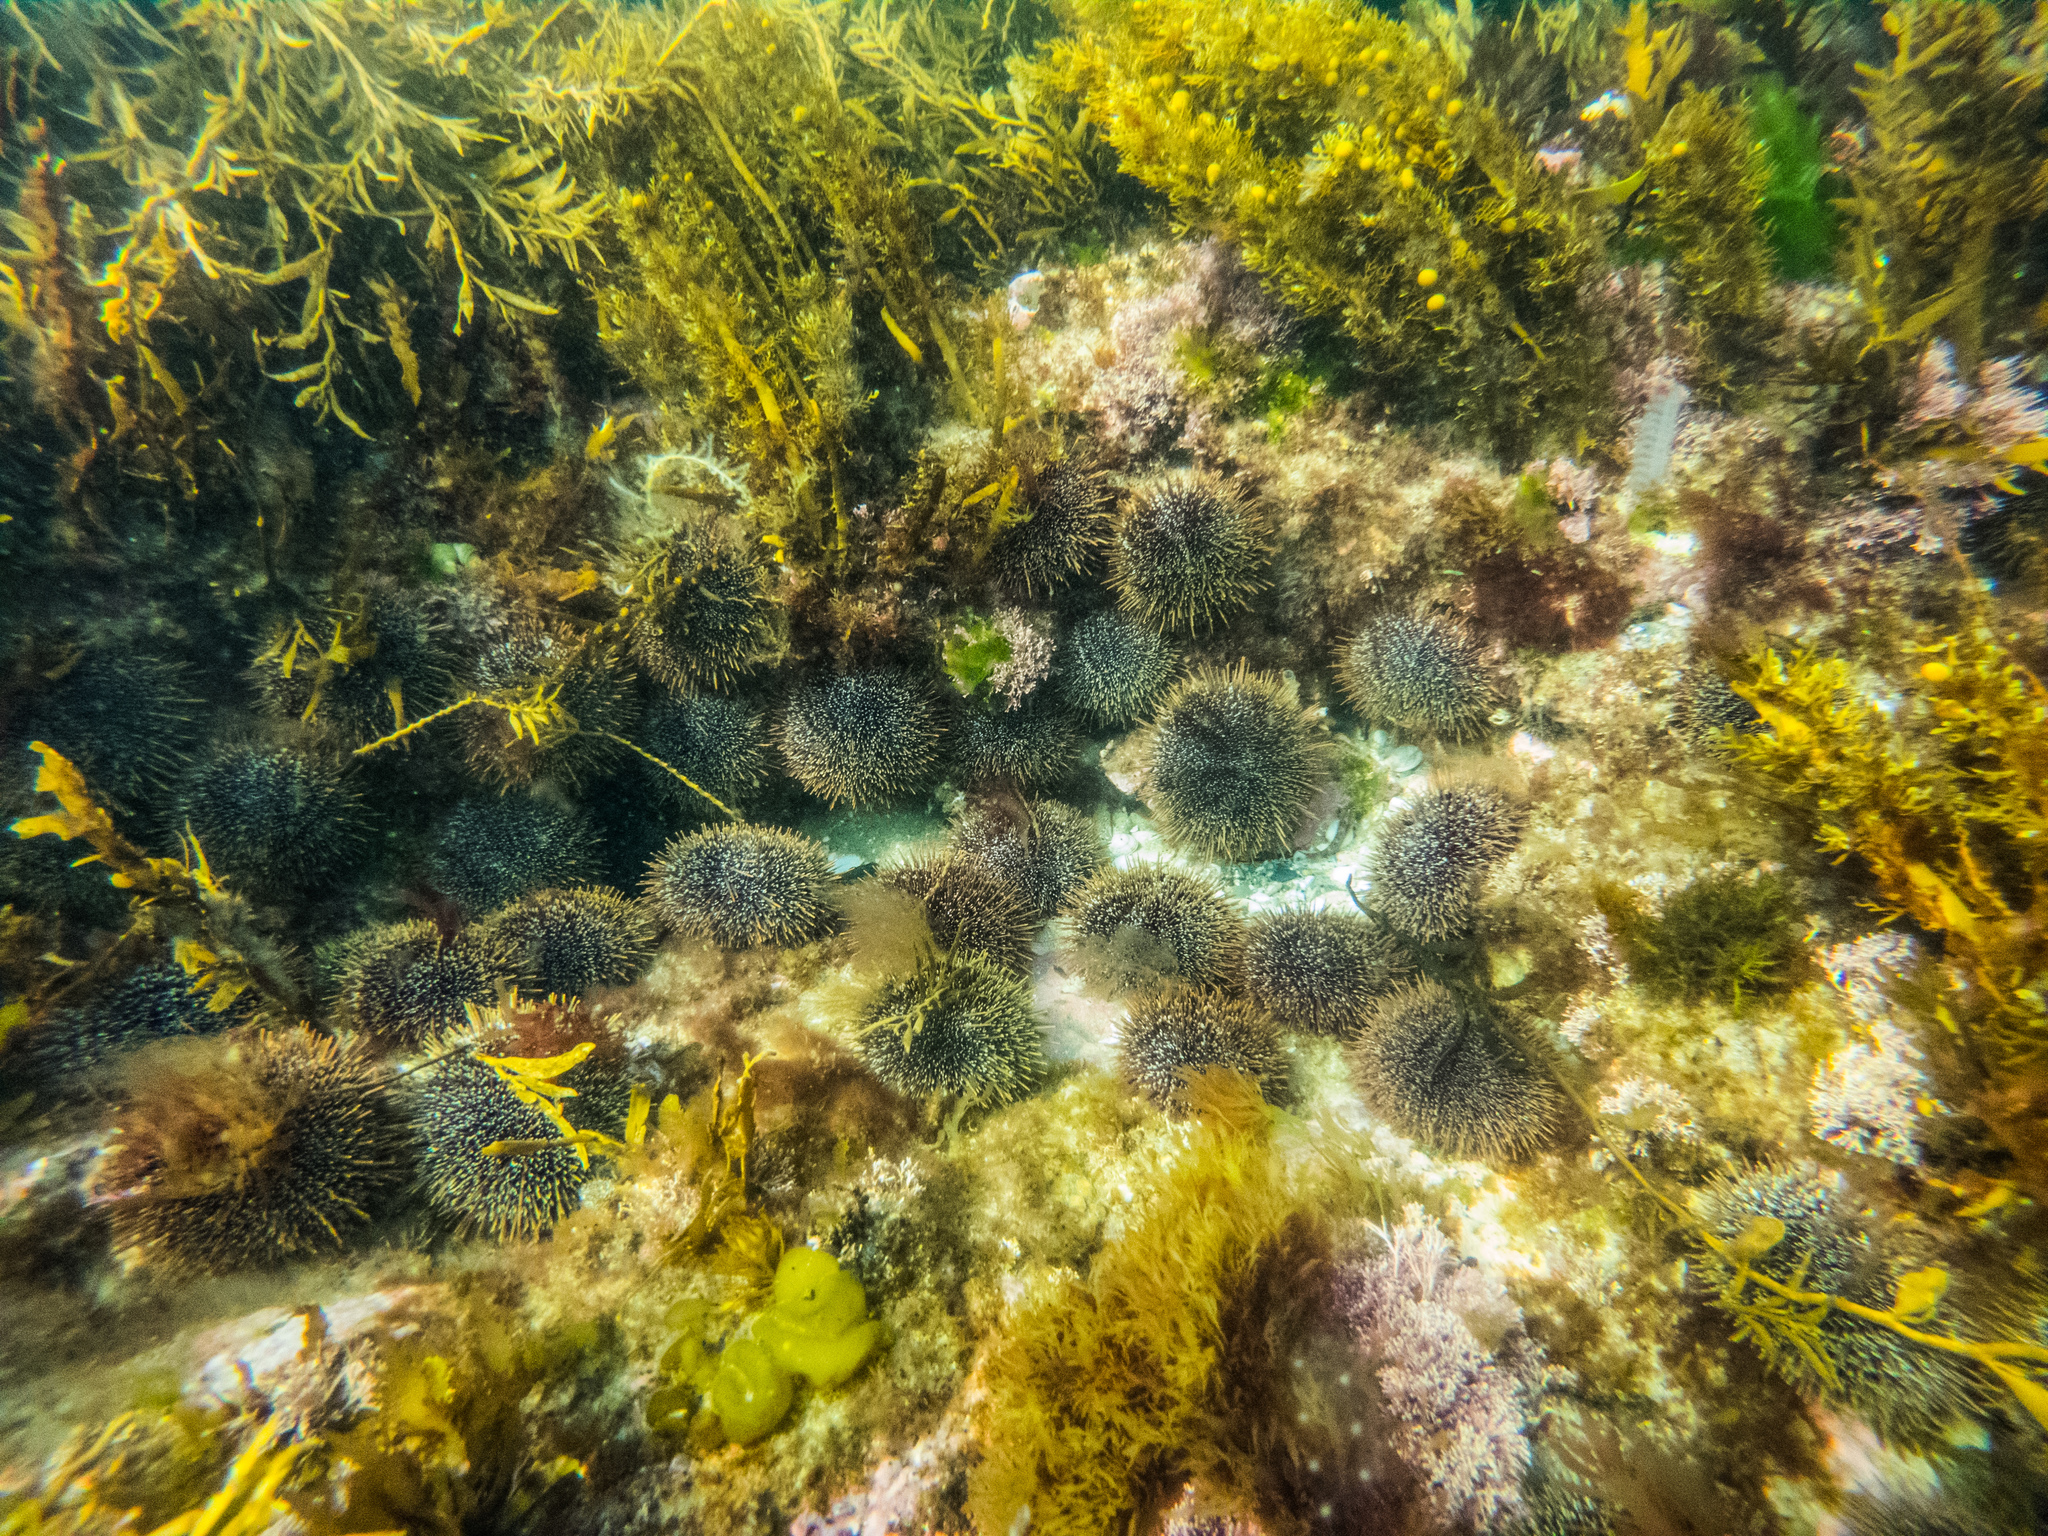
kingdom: Animalia
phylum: Echinodermata
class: Echinoidea
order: Camarodonta
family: Echinometridae
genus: Evechinus
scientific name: Evechinus chloroticus
